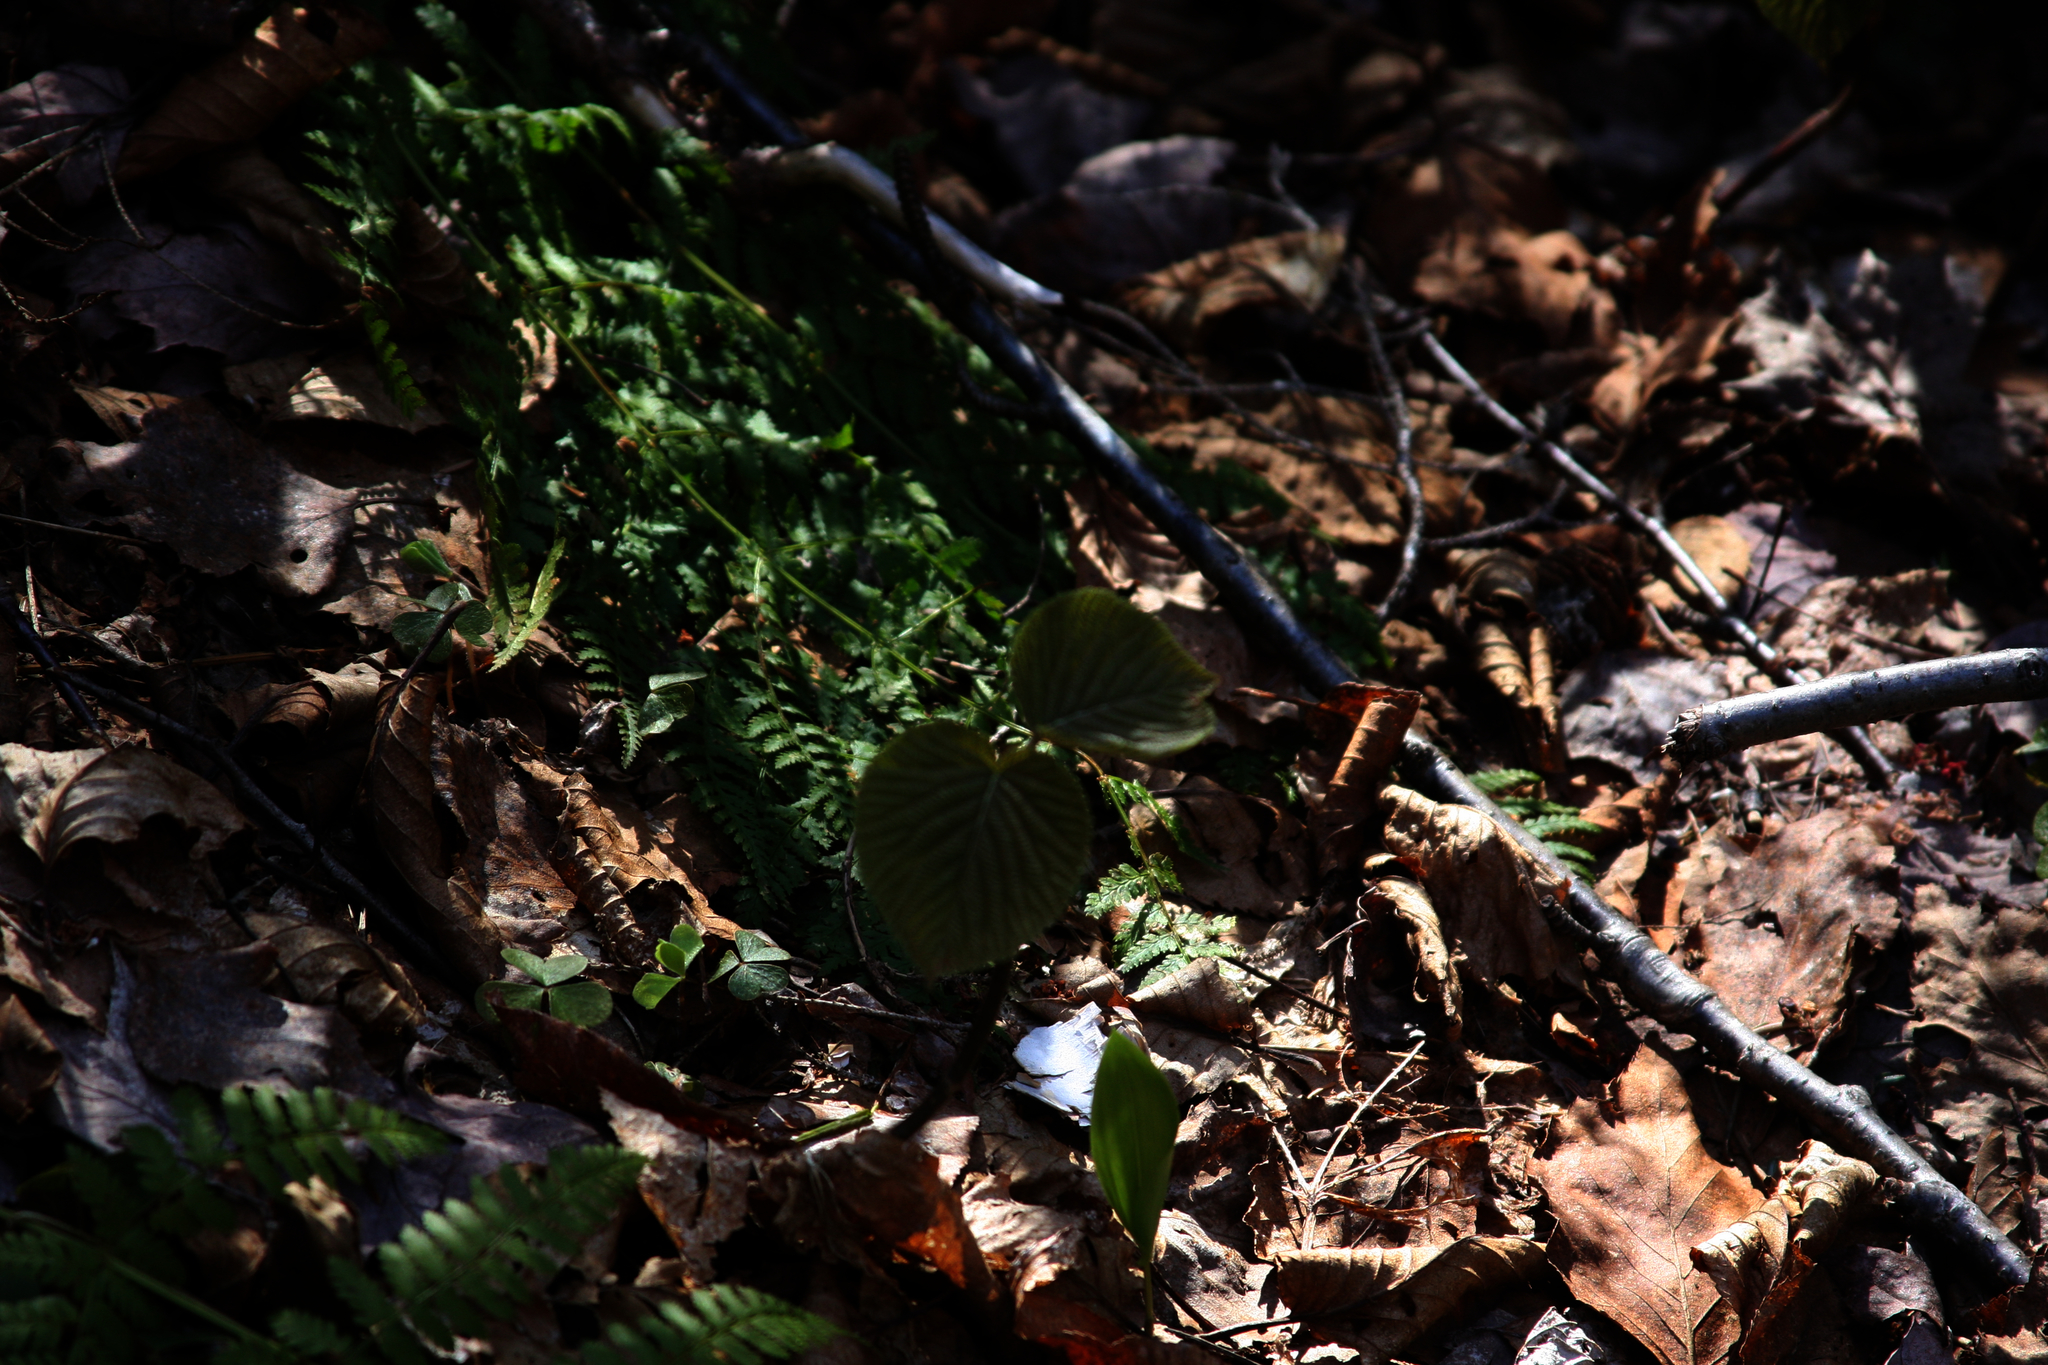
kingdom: Plantae
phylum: Tracheophyta
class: Magnoliopsida
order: Dipsacales
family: Viburnaceae
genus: Viburnum
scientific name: Viburnum lantanoides
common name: Hobblebush
